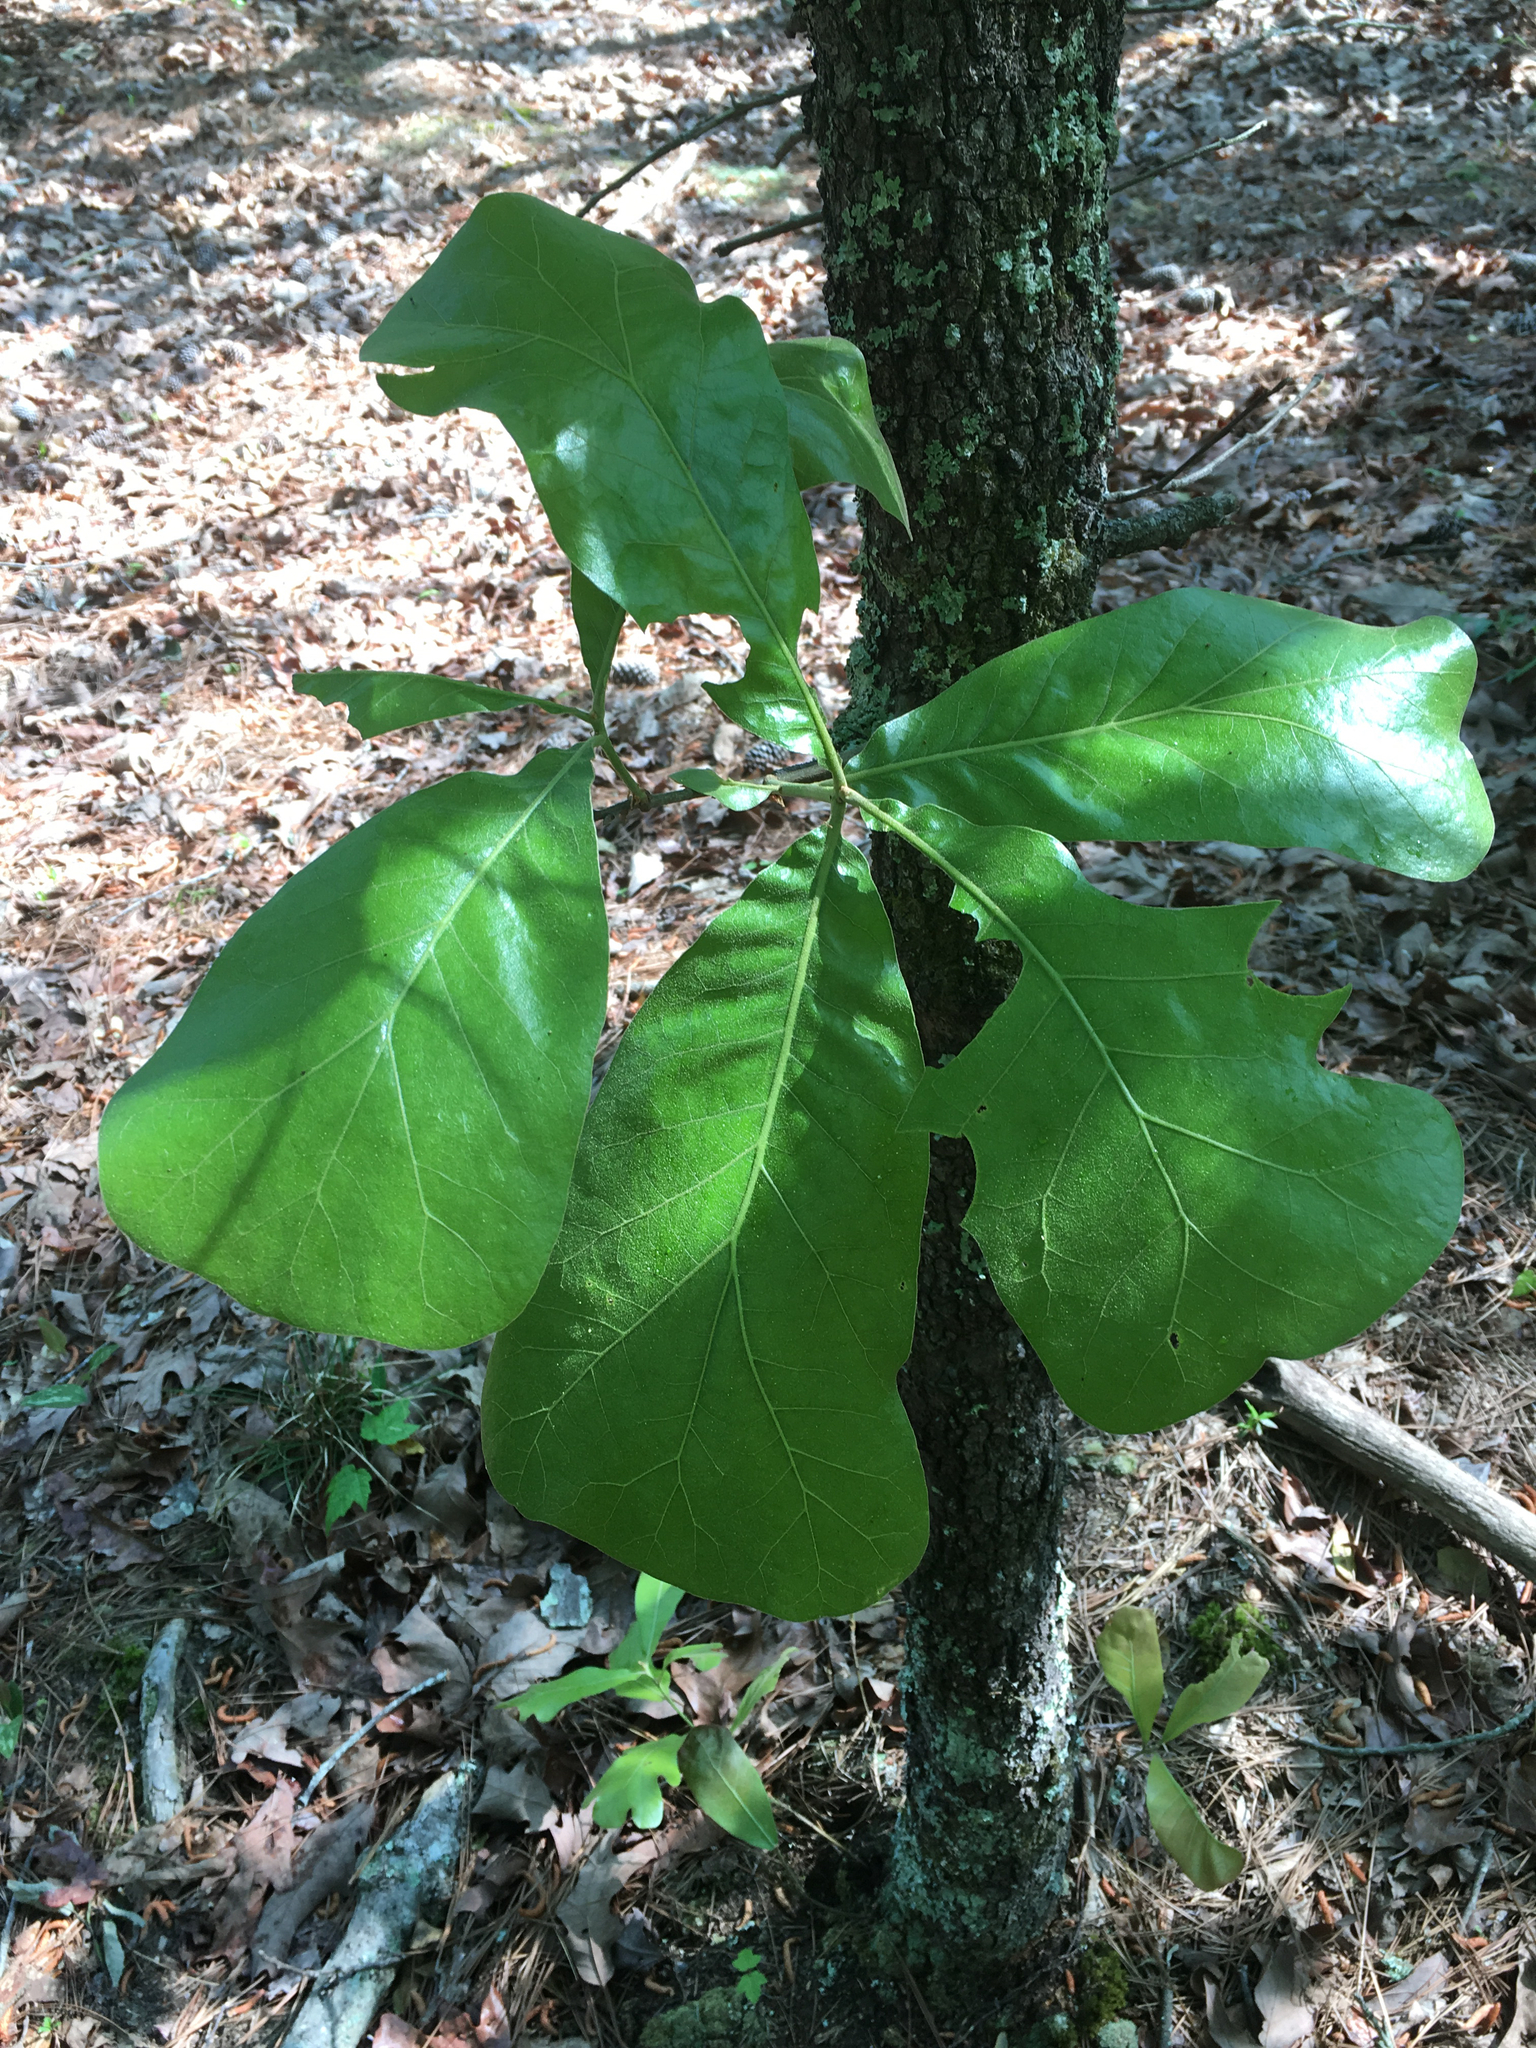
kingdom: Plantae
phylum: Tracheophyta
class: Magnoliopsida
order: Fagales
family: Fagaceae
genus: Quercus
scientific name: Quercus marilandica
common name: Blackjack oak
